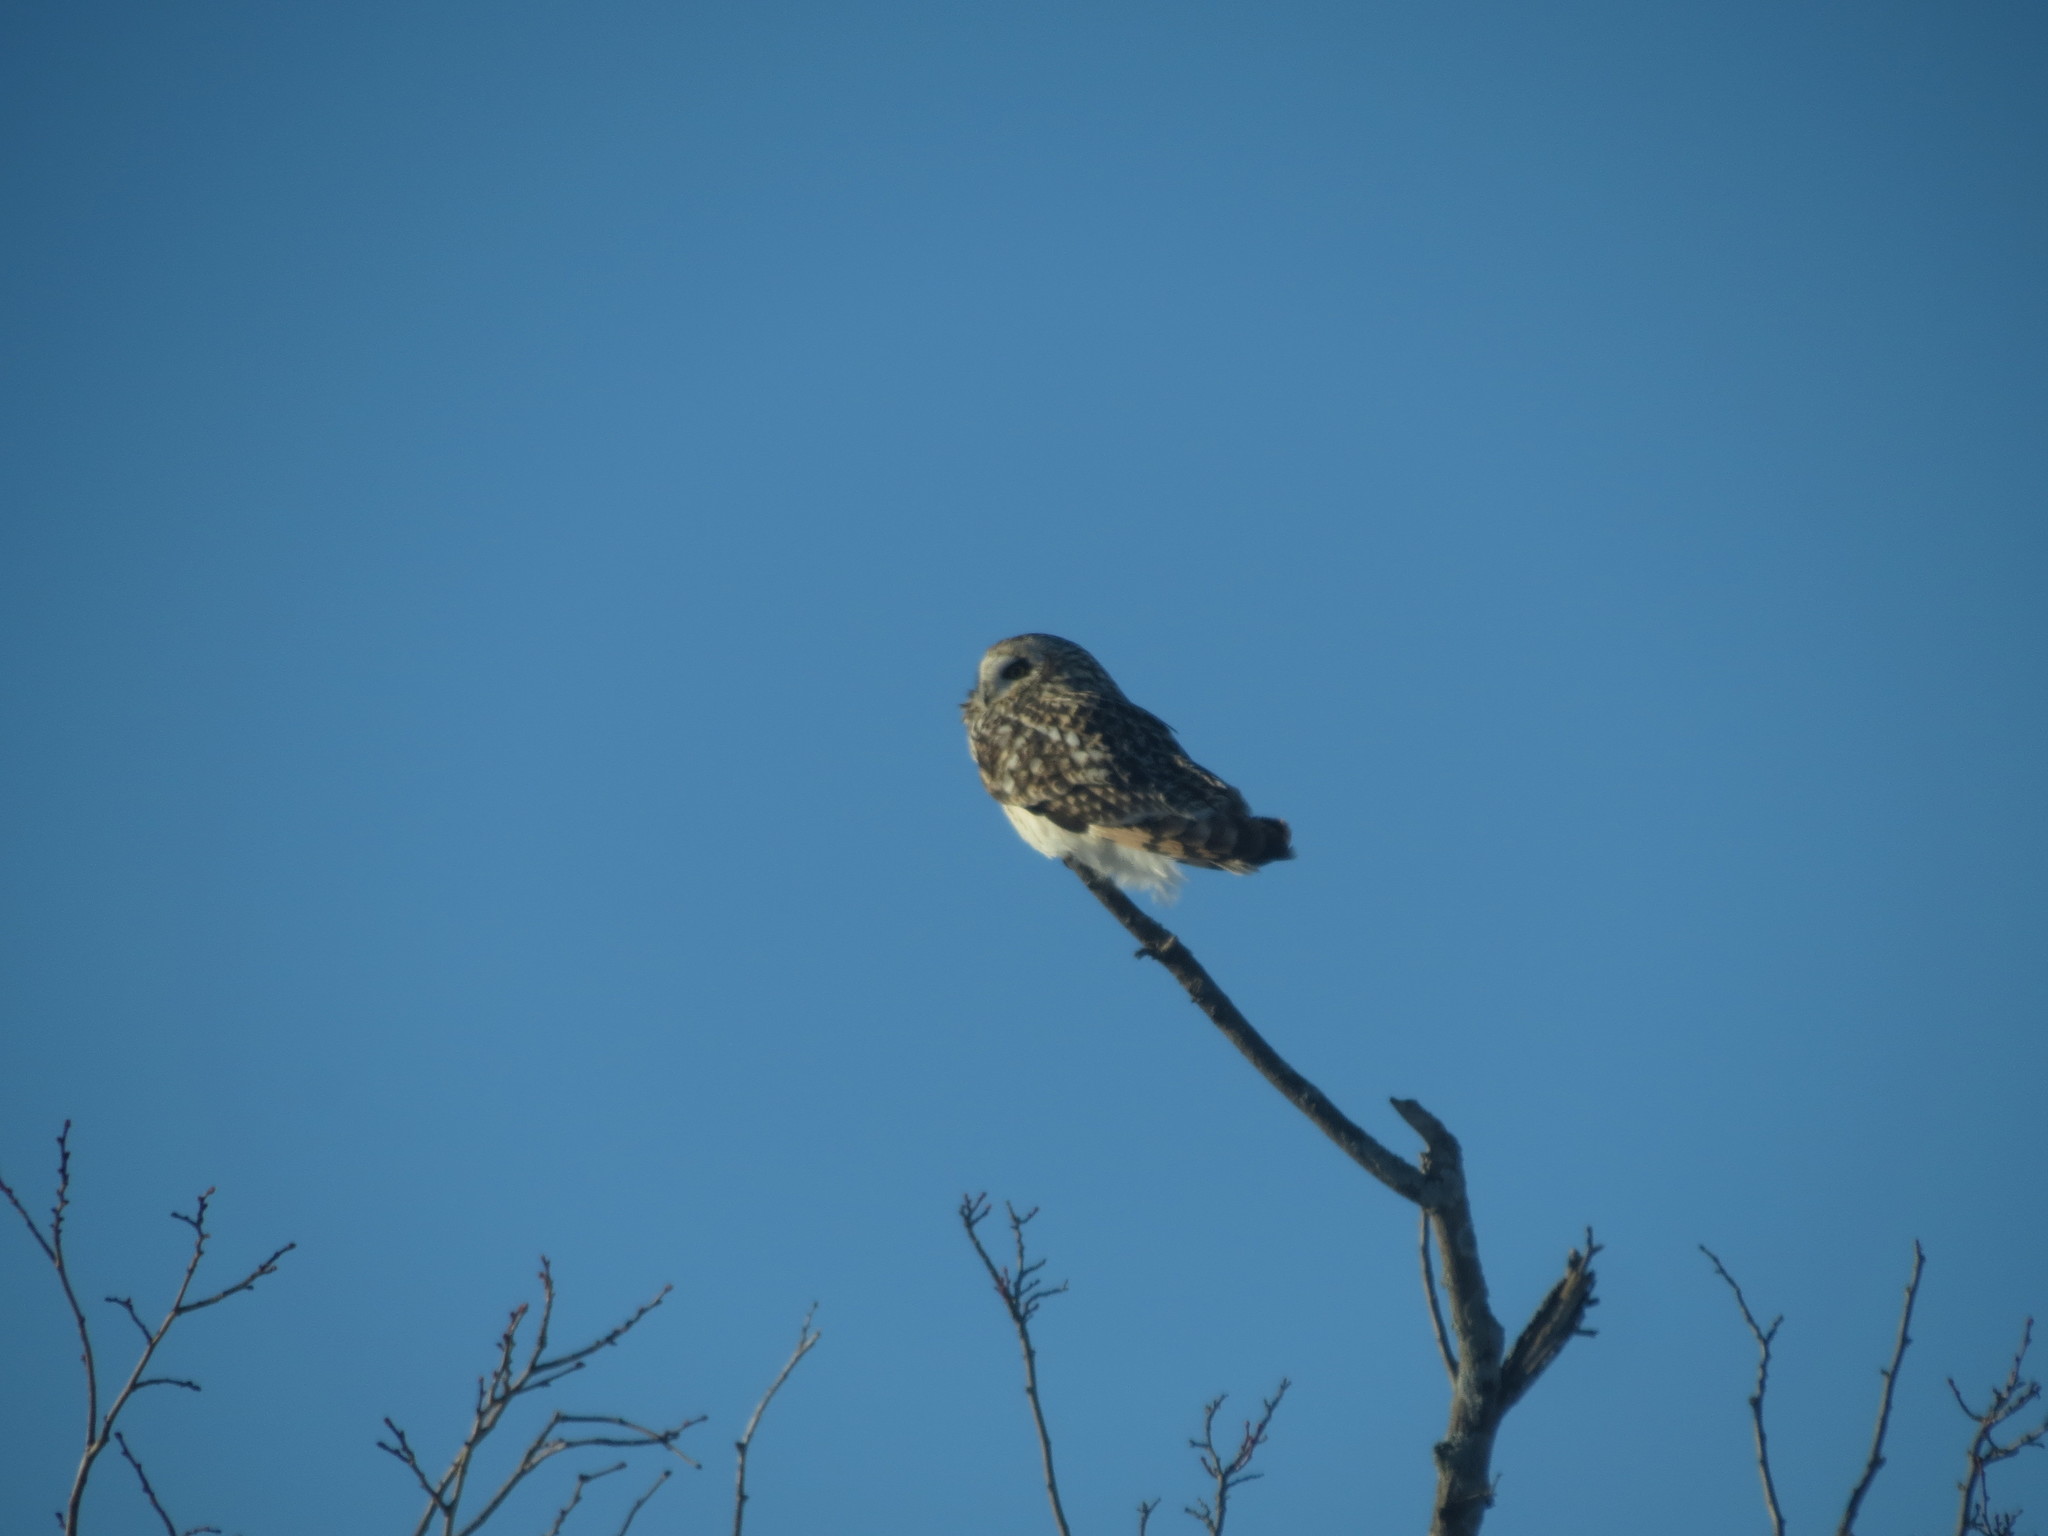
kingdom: Animalia
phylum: Chordata
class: Aves
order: Strigiformes
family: Strigidae
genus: Asio
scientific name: Asio flammeus
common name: Short-eared owl
